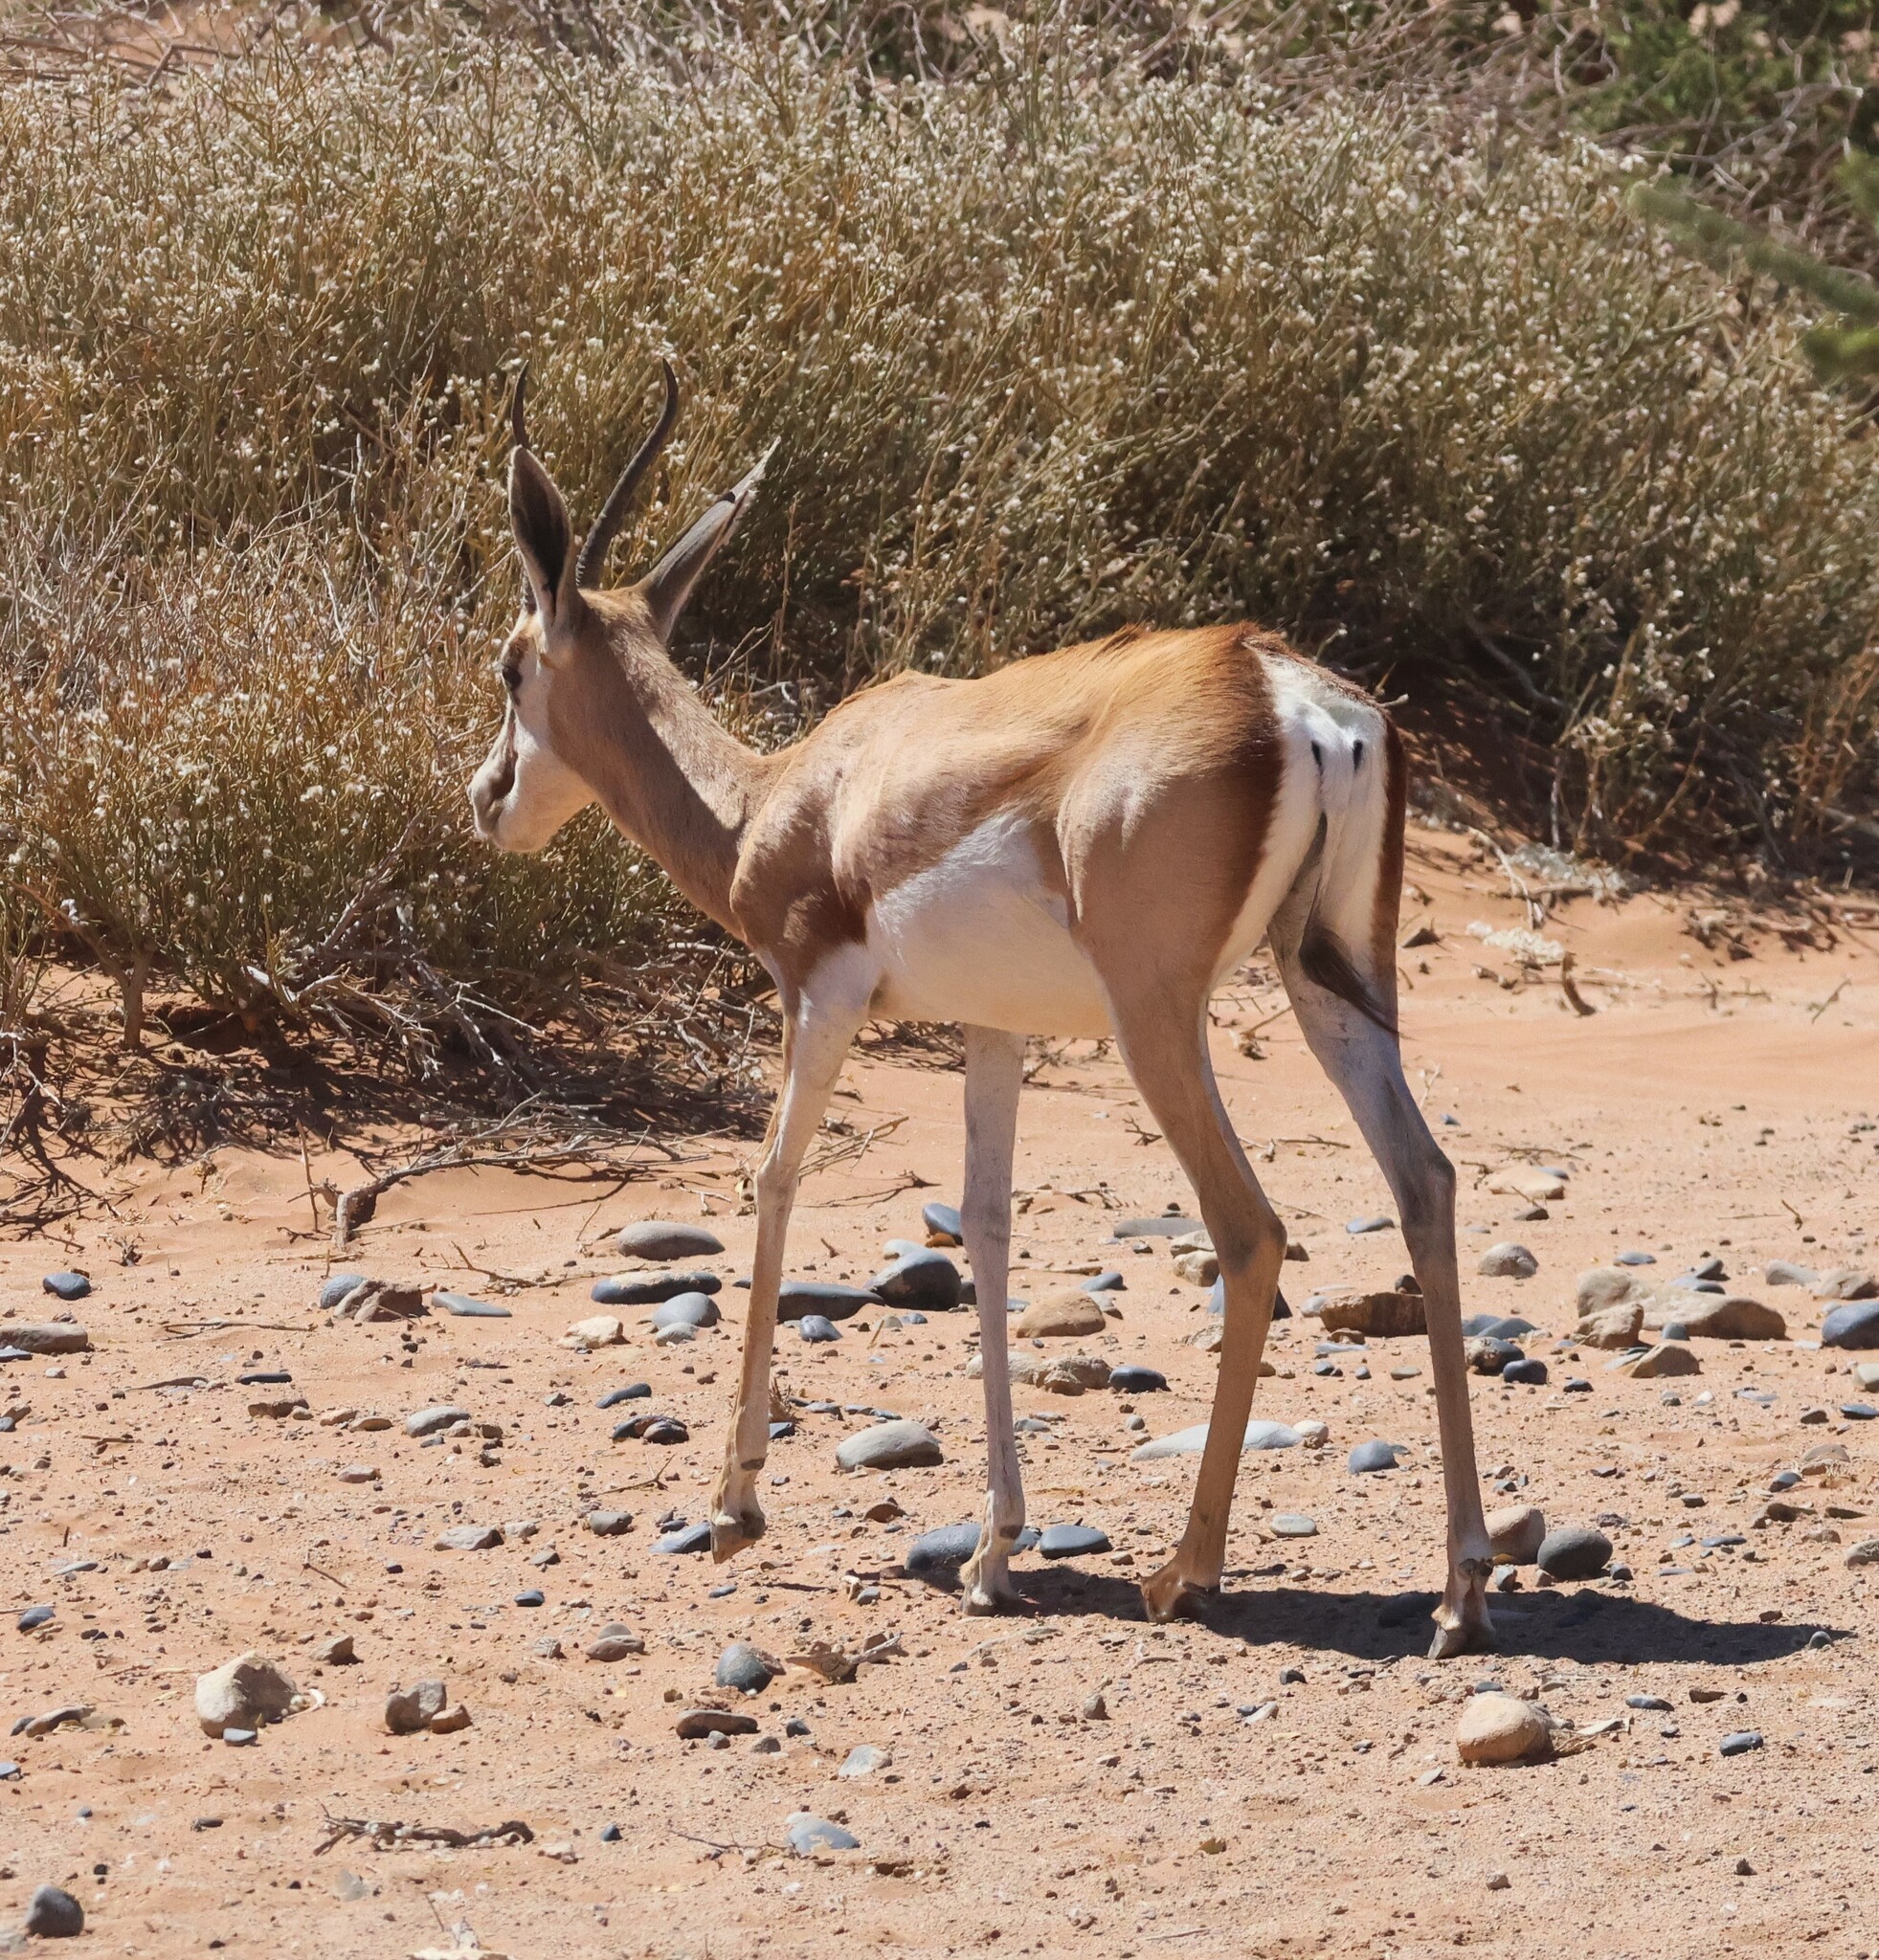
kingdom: Animalia
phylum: Chordata
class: Mammalia
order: Artiodactyla
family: Bovidae
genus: Antidorcas
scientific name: Antidorcas marsupialis
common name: Springbok
